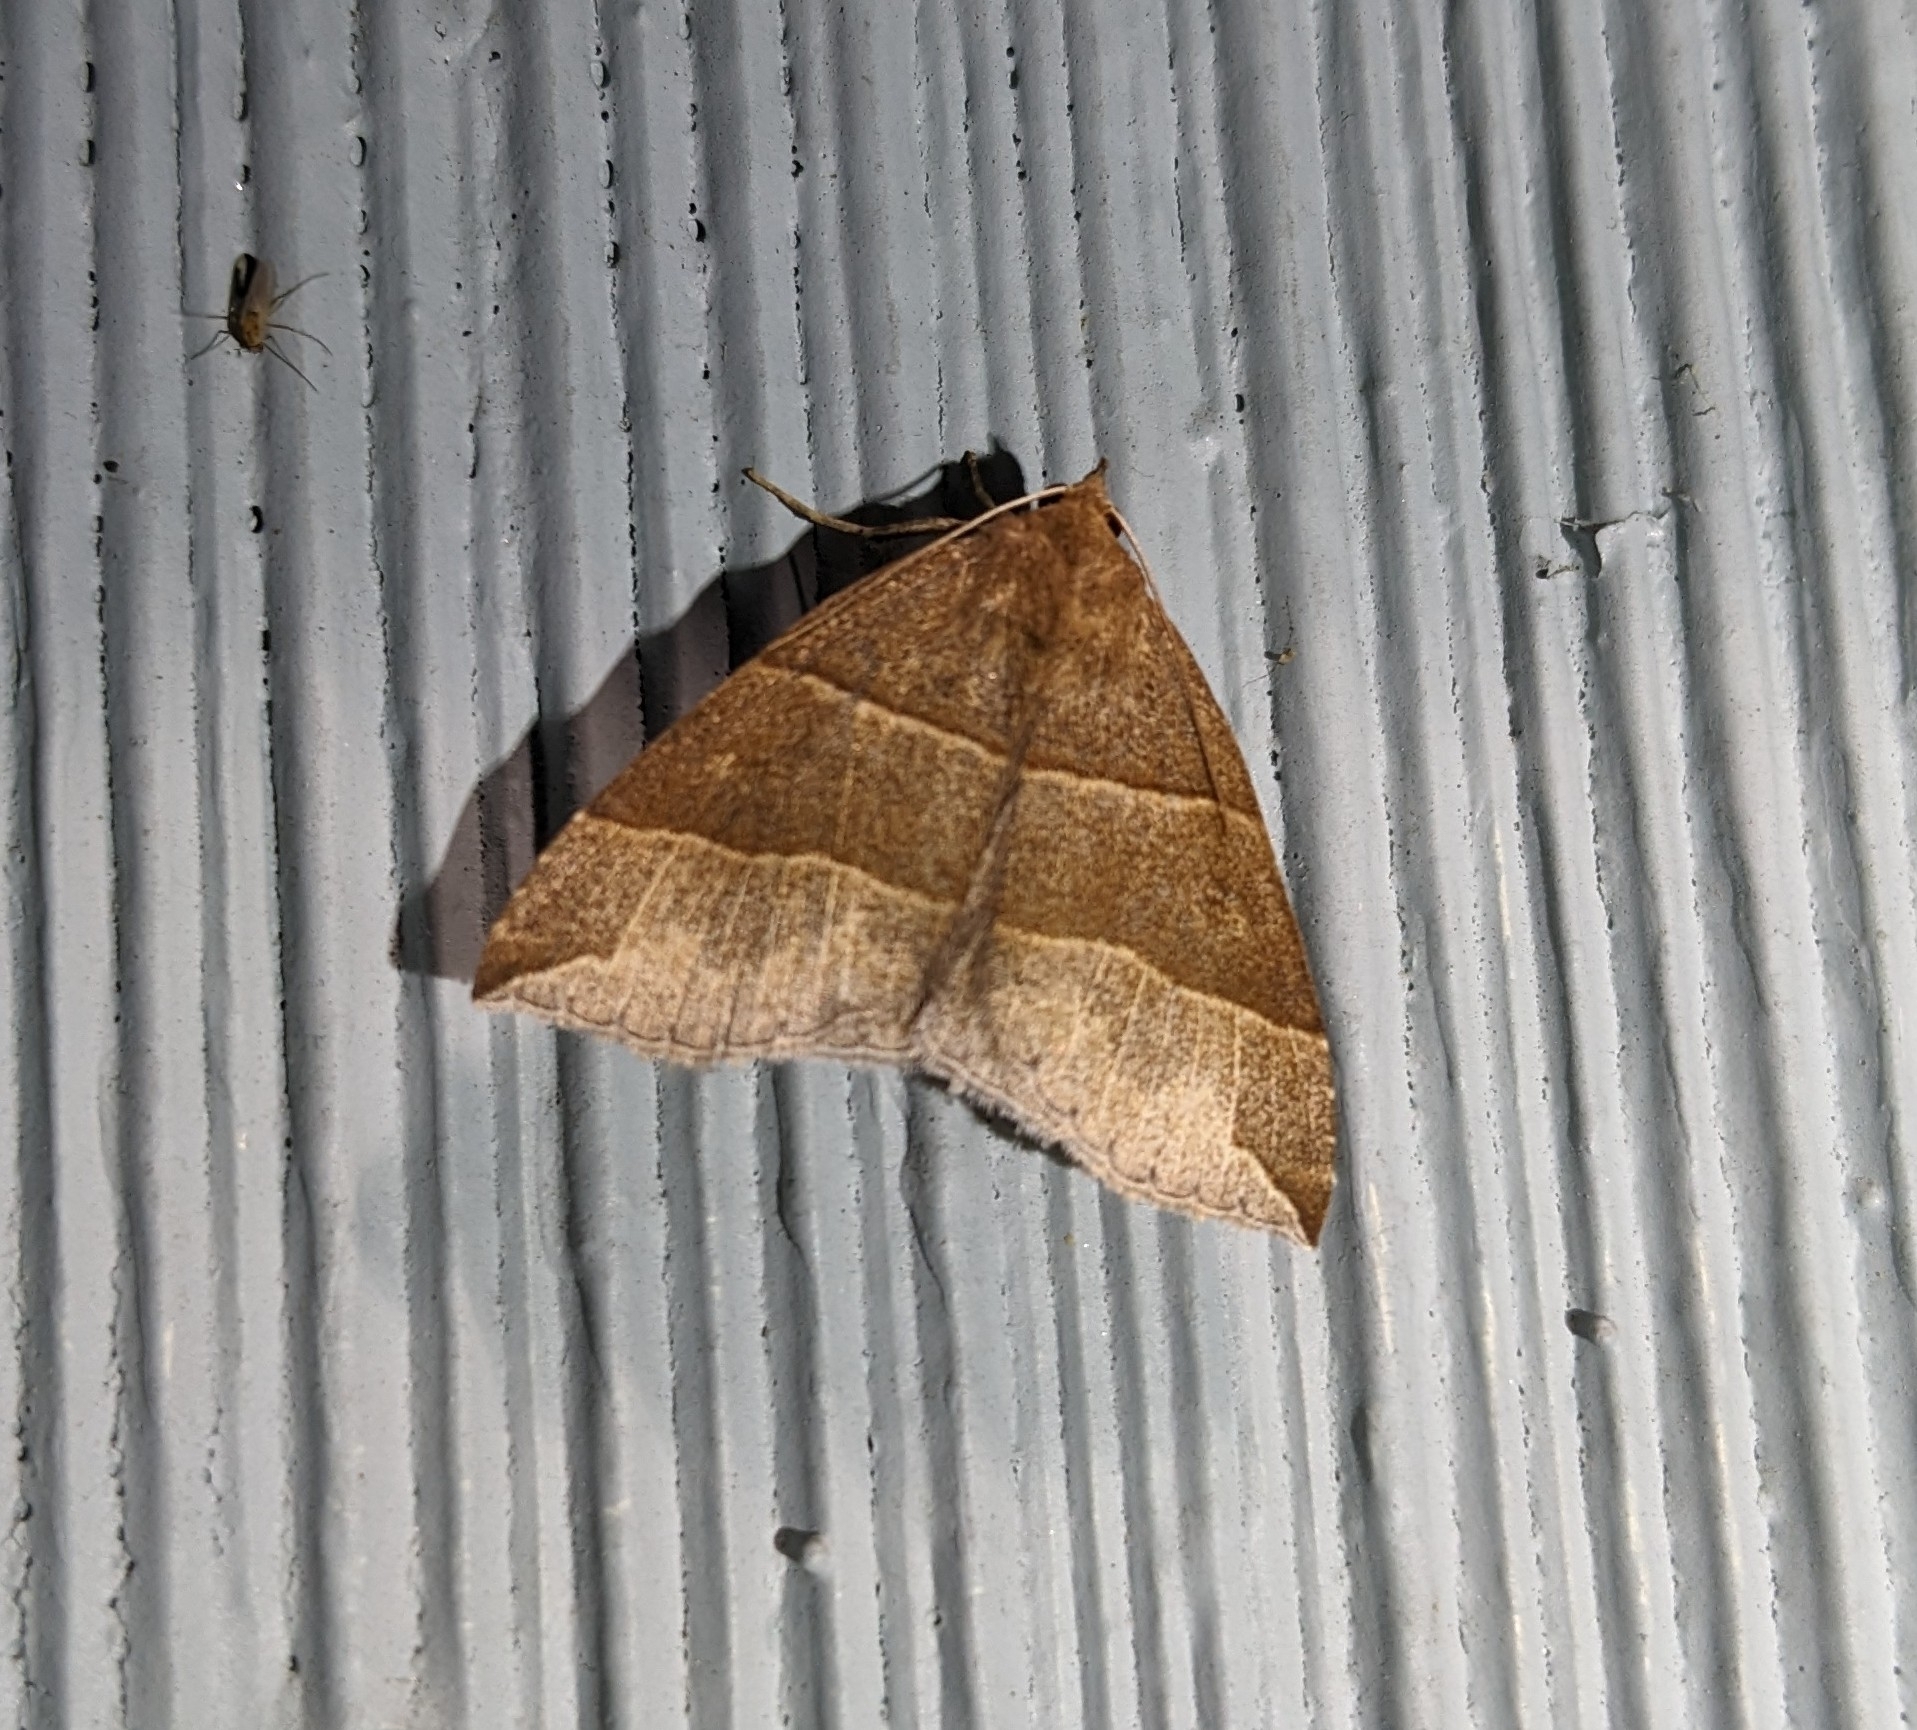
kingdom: Animalia
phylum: Arthropoda
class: Insecta
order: Lepidoptera
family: Erebidae
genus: Parallelia
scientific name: Parallelia bistriaris
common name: Maple looper moth
